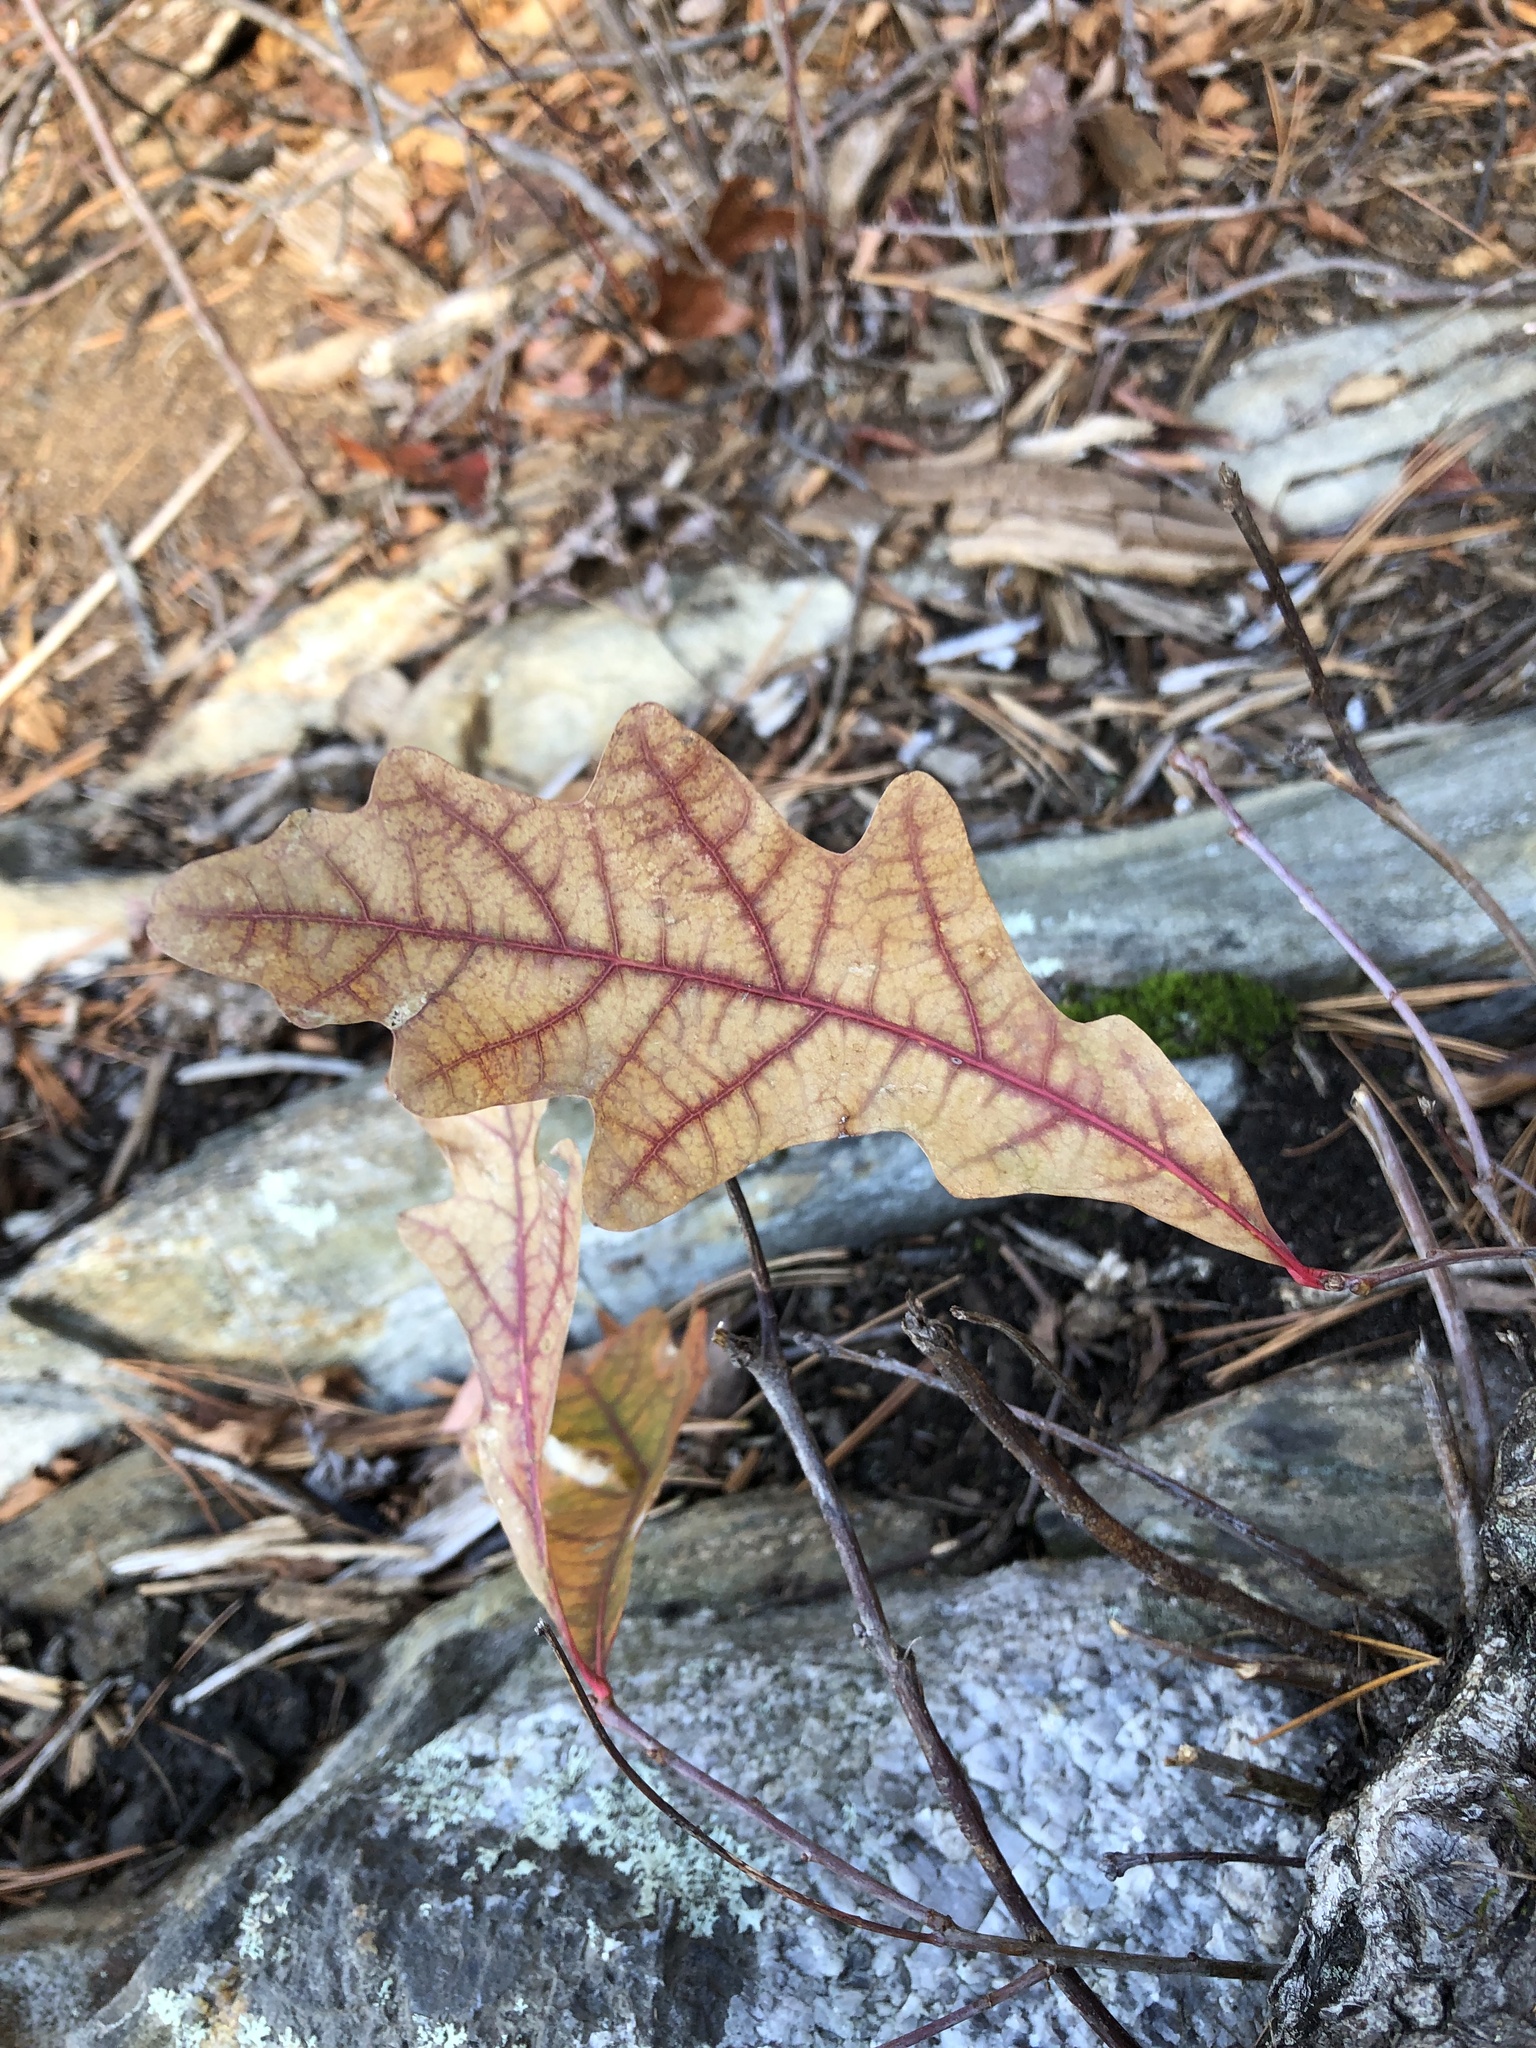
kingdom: Plantae
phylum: Tracheophyta
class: Magnoliopsida
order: Fagales
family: Fagaceae
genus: Quercus
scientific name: Quercus alba
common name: White oak
